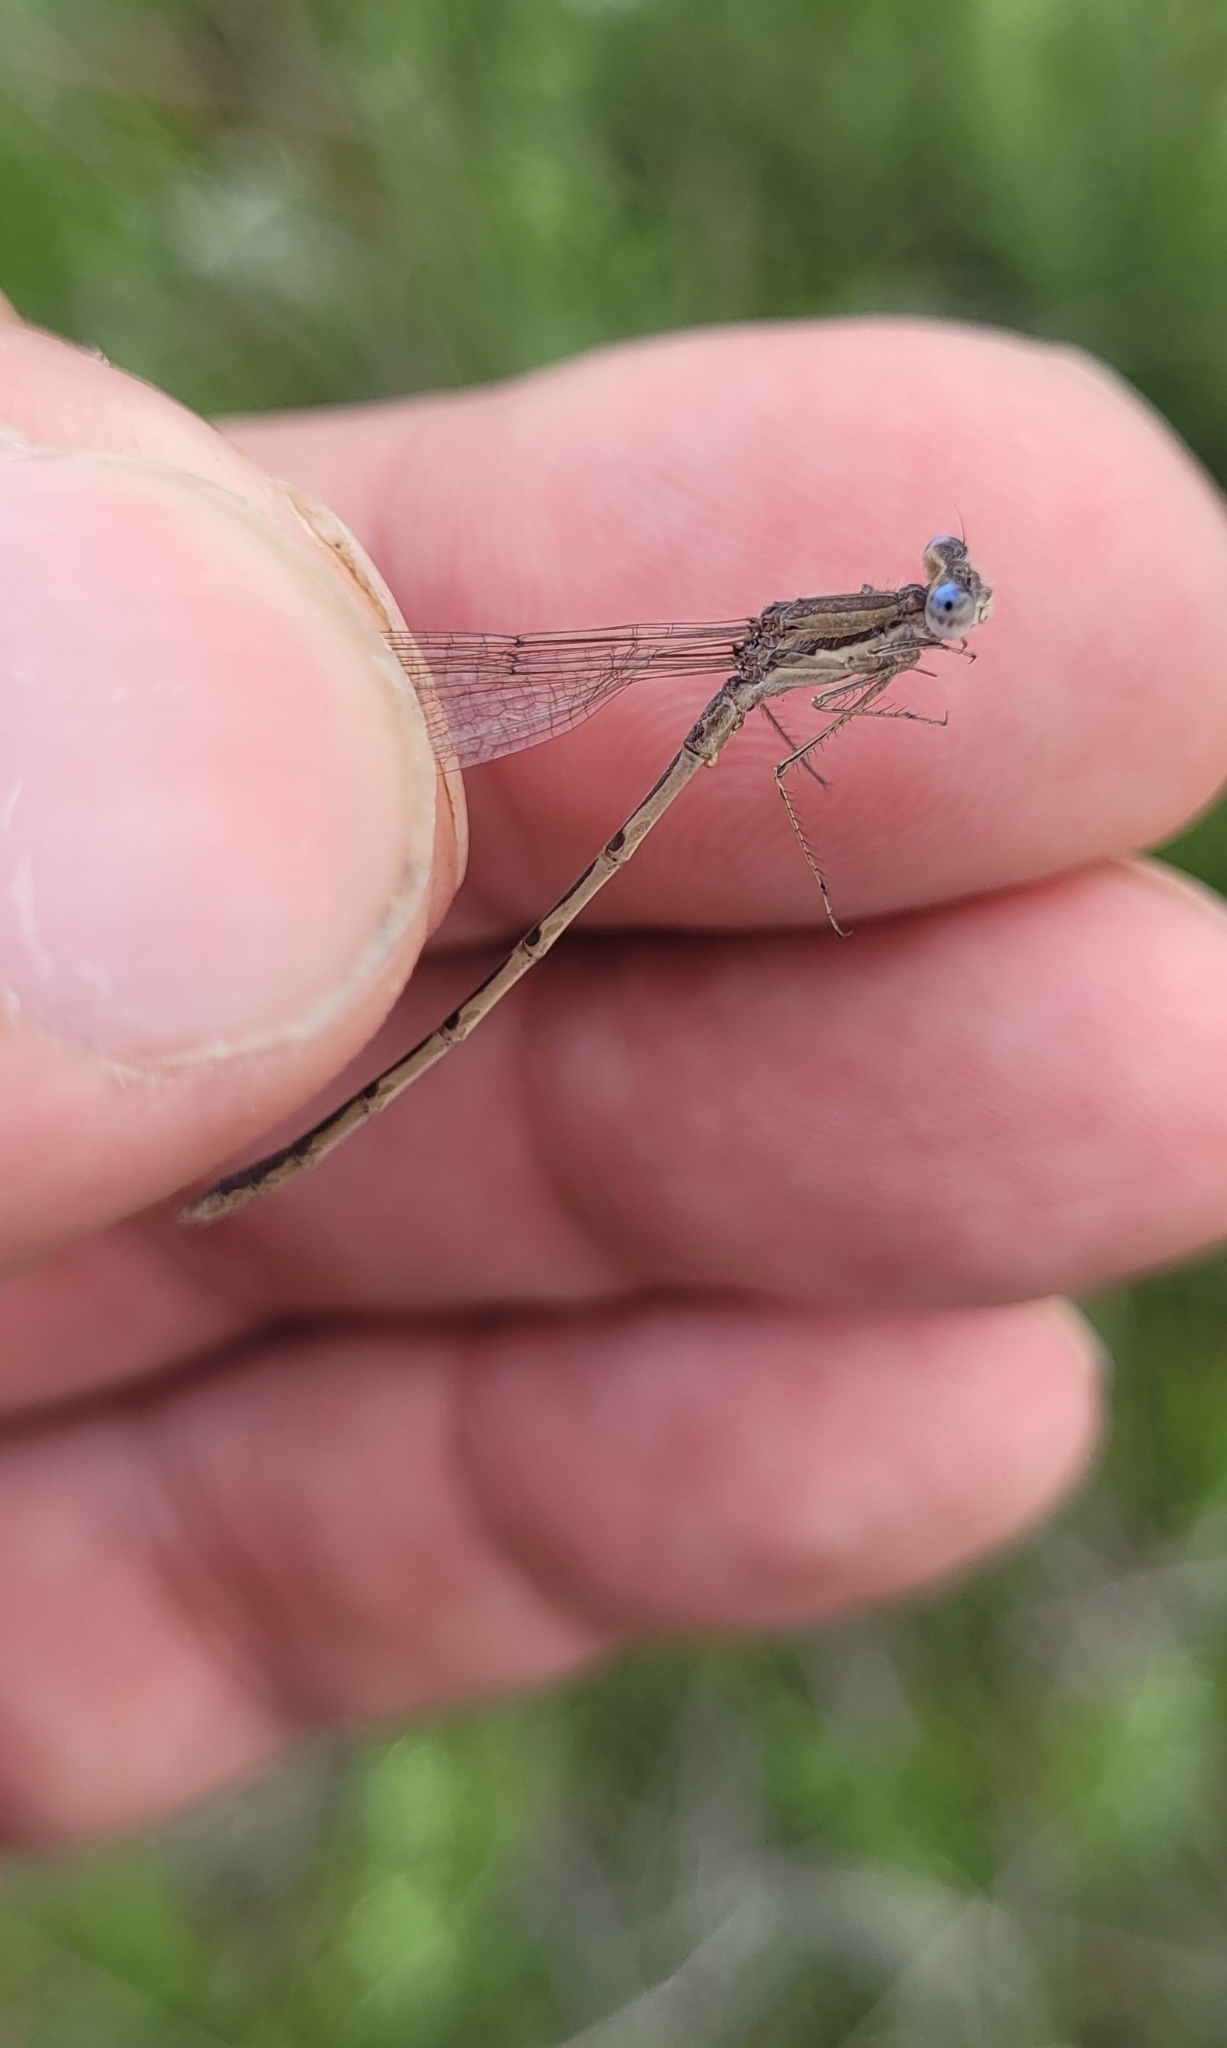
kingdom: Animalia
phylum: Arthropoda
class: Insecta
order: Odonata
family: Lestidae
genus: Sympecma
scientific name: Sympecma fusca
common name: Common winter damsel
